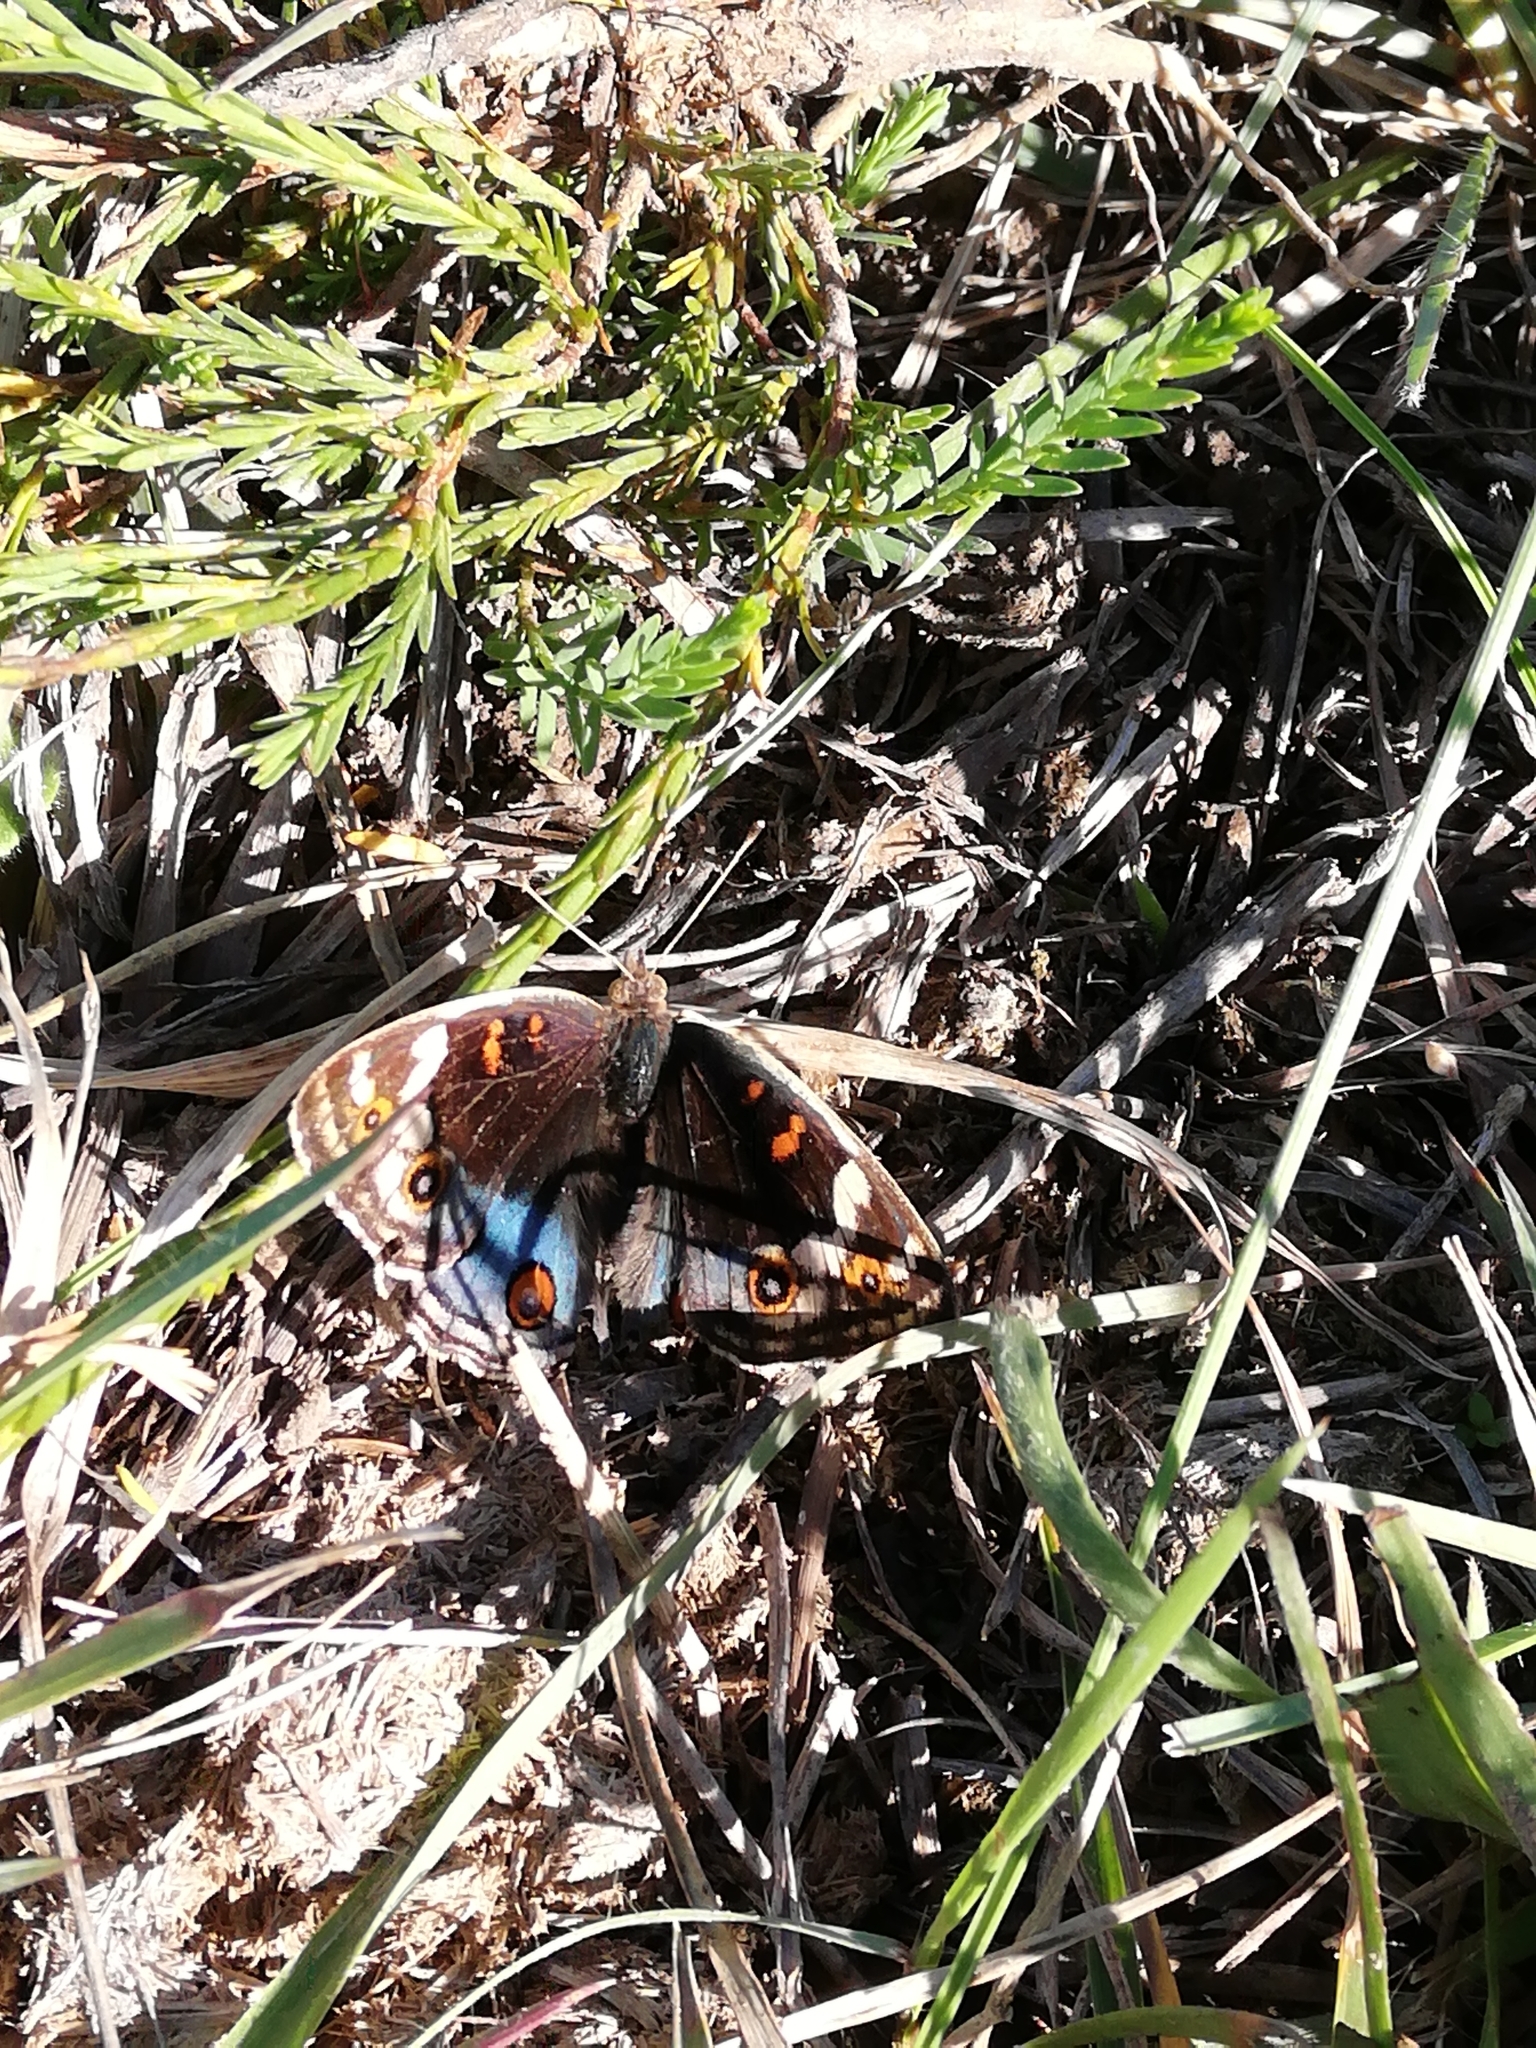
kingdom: Animalia
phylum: Arthropoda
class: Insecta
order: Lepidoptera
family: Nymphalidae
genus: Junonia
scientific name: Junonia orithya
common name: Blue pansy
